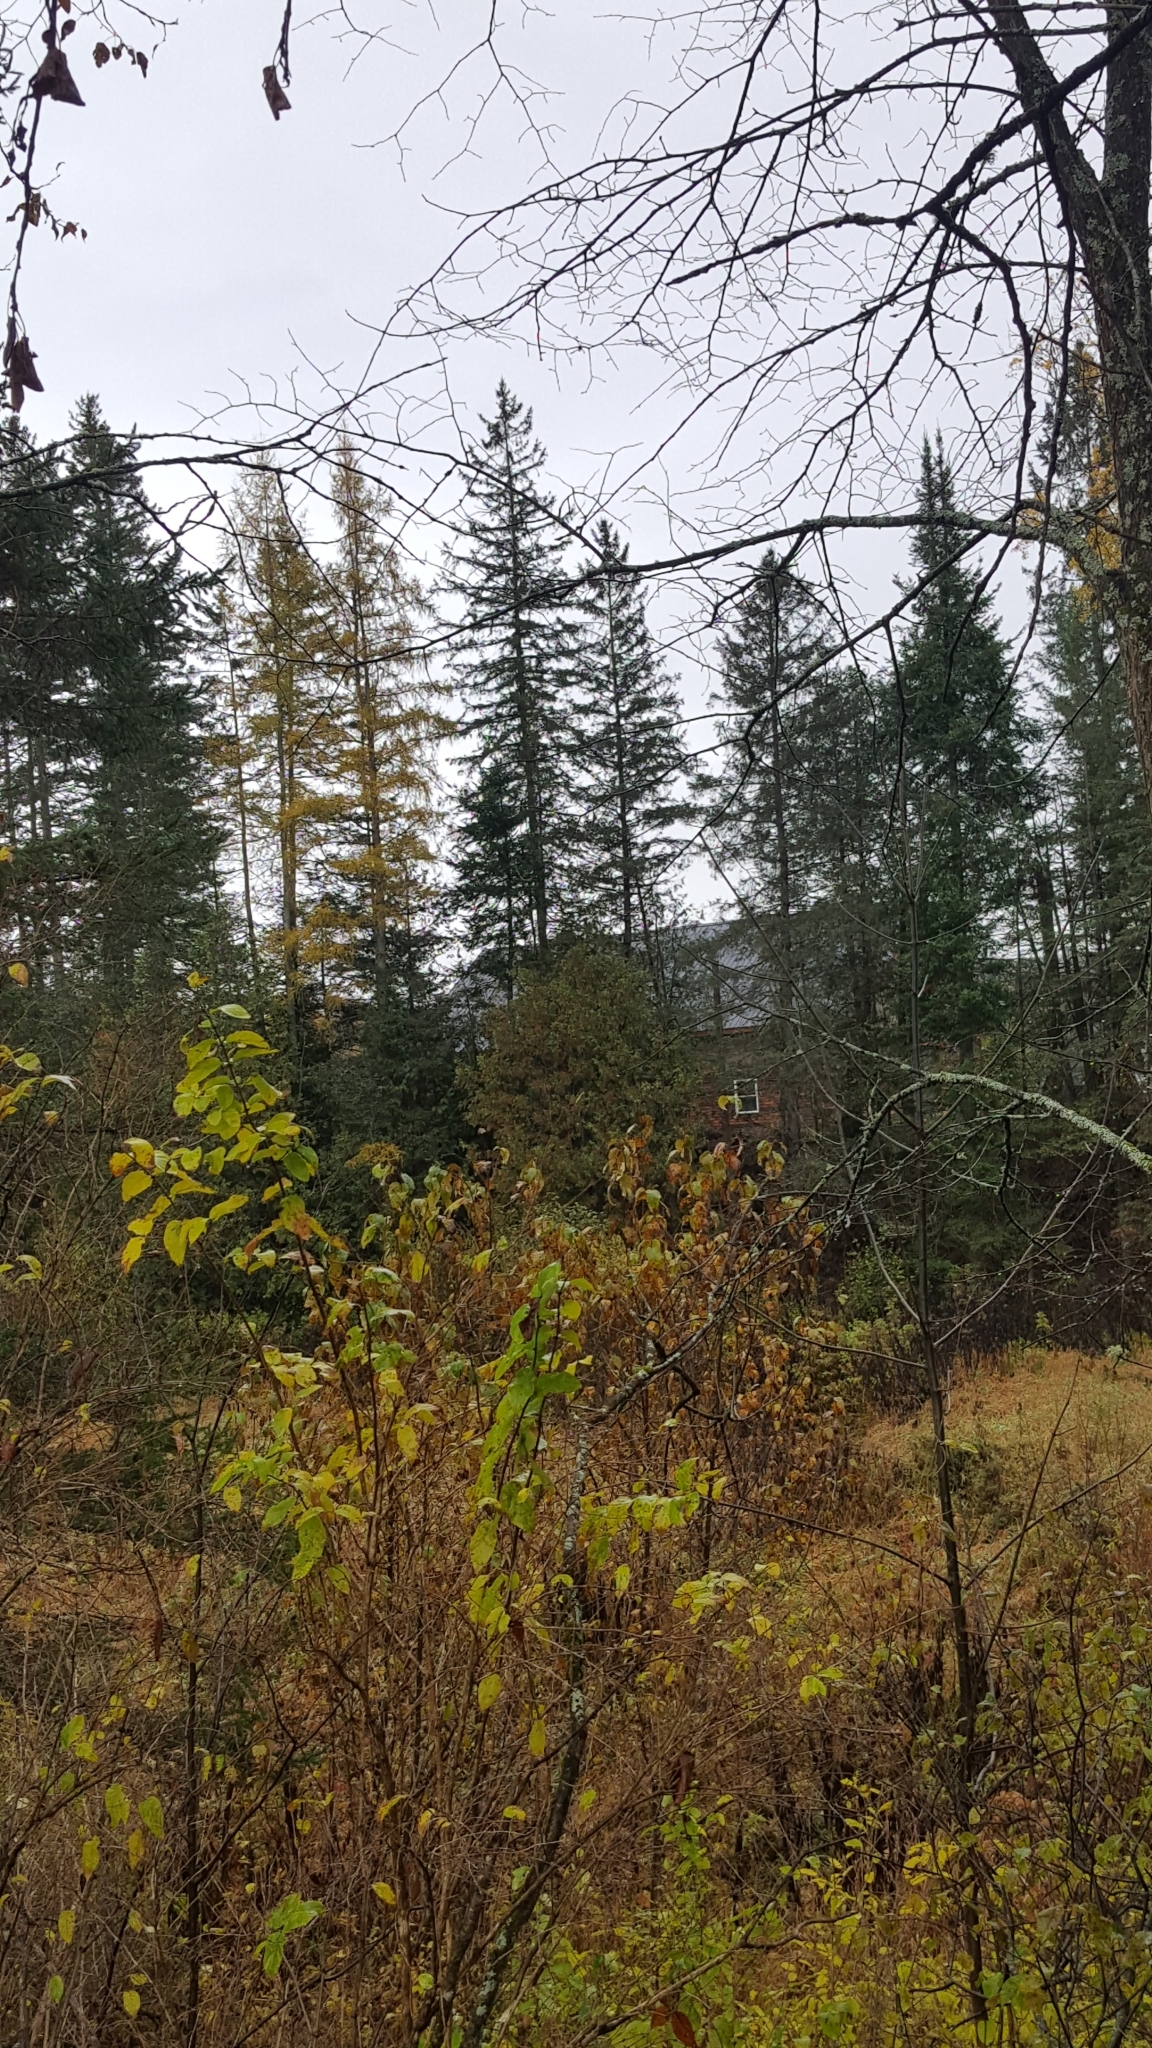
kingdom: Plantae
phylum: Tracheophyta
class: Pinopsida
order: Pinales
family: Pinaceae
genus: Larix
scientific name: Larix laricina
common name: American larch
